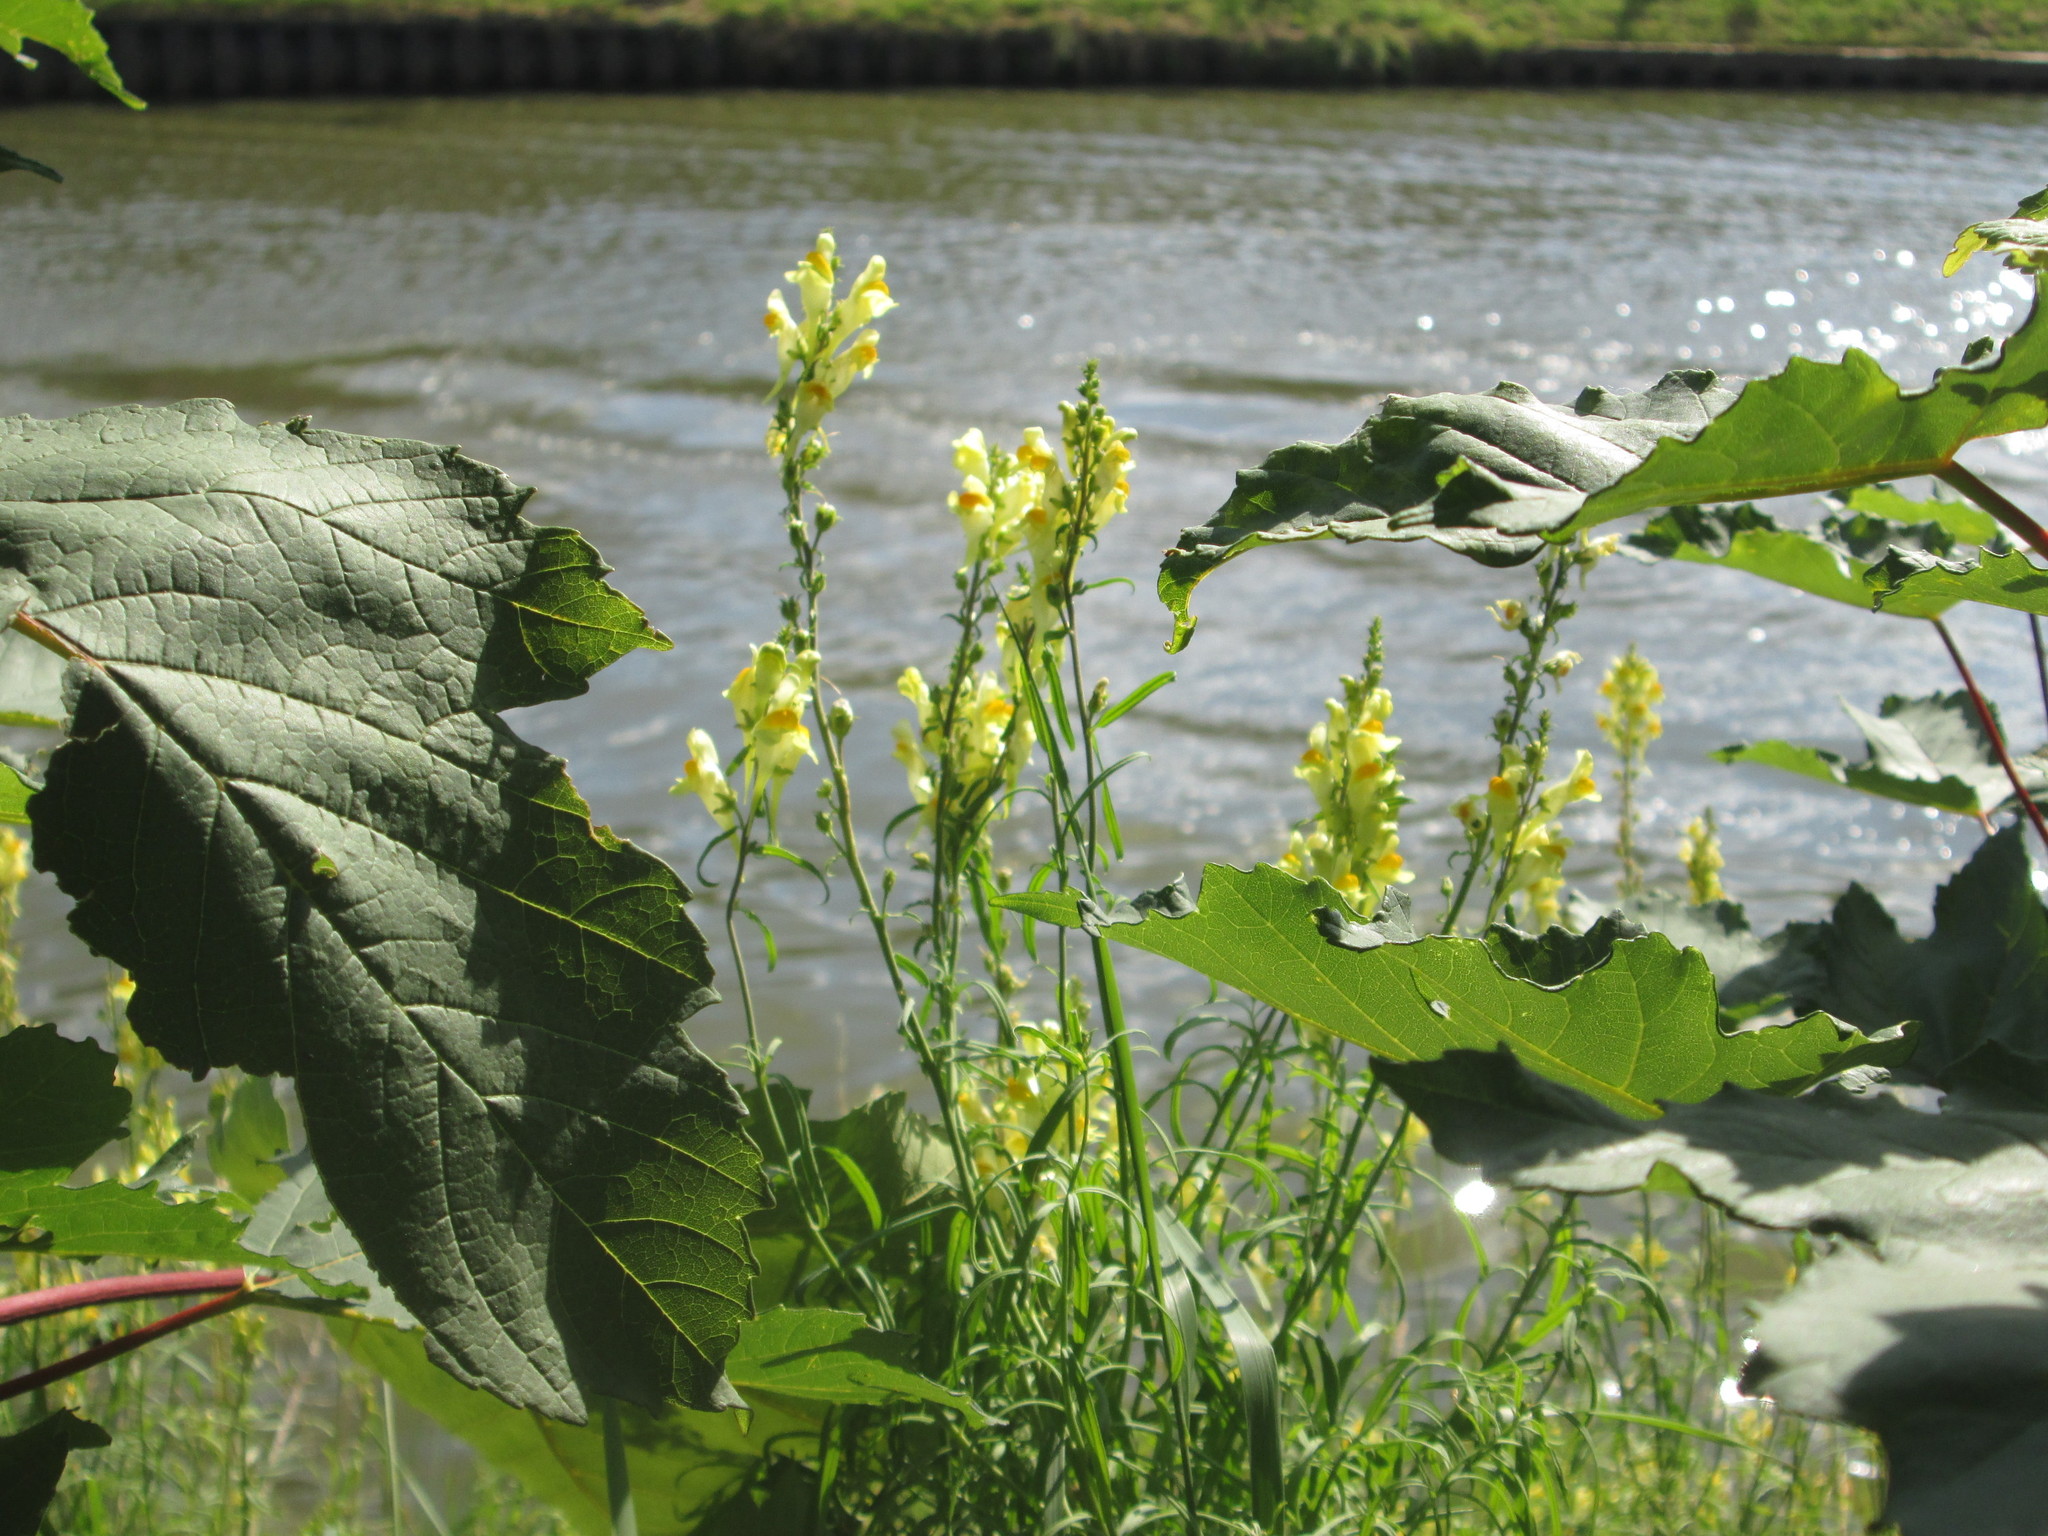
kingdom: Plantae
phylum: Tracheophyta
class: Magnoliopsida
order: Lamiales
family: Plantaginaceae
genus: Linaria
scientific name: Linaria vulgaris
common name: Butter and eggs
